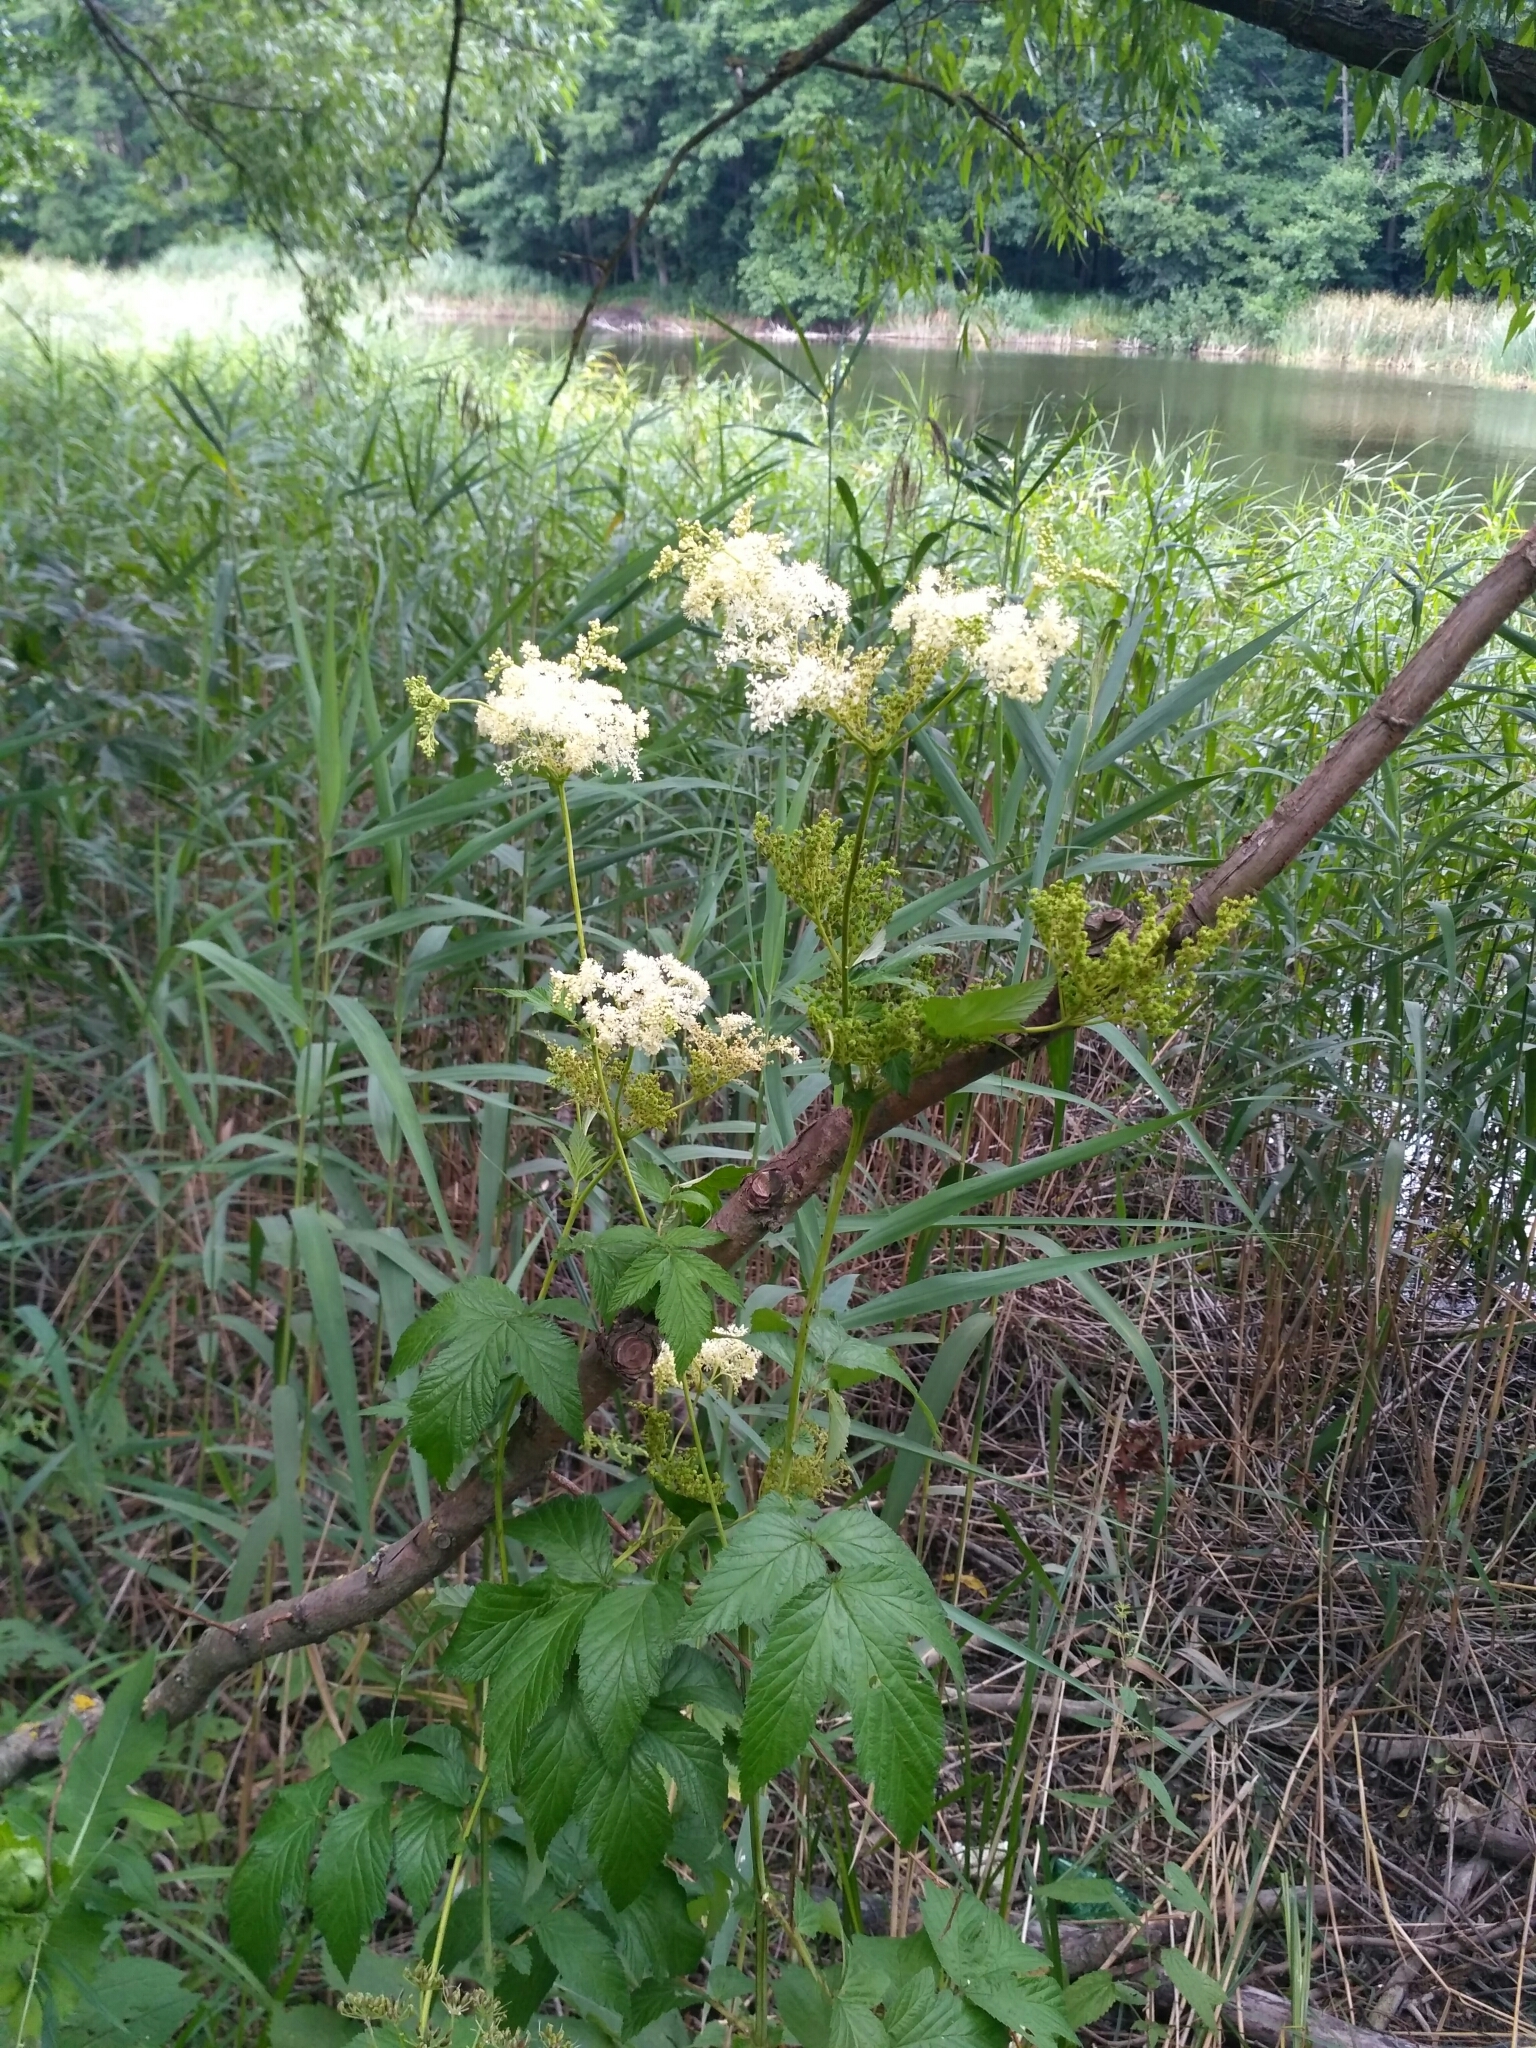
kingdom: Plantae
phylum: Tracheophyta
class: Magnoliopsida
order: Rosales
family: Rosaceae
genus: Filipendula
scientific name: Filipendula ulmaria
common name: Meadowsweet
